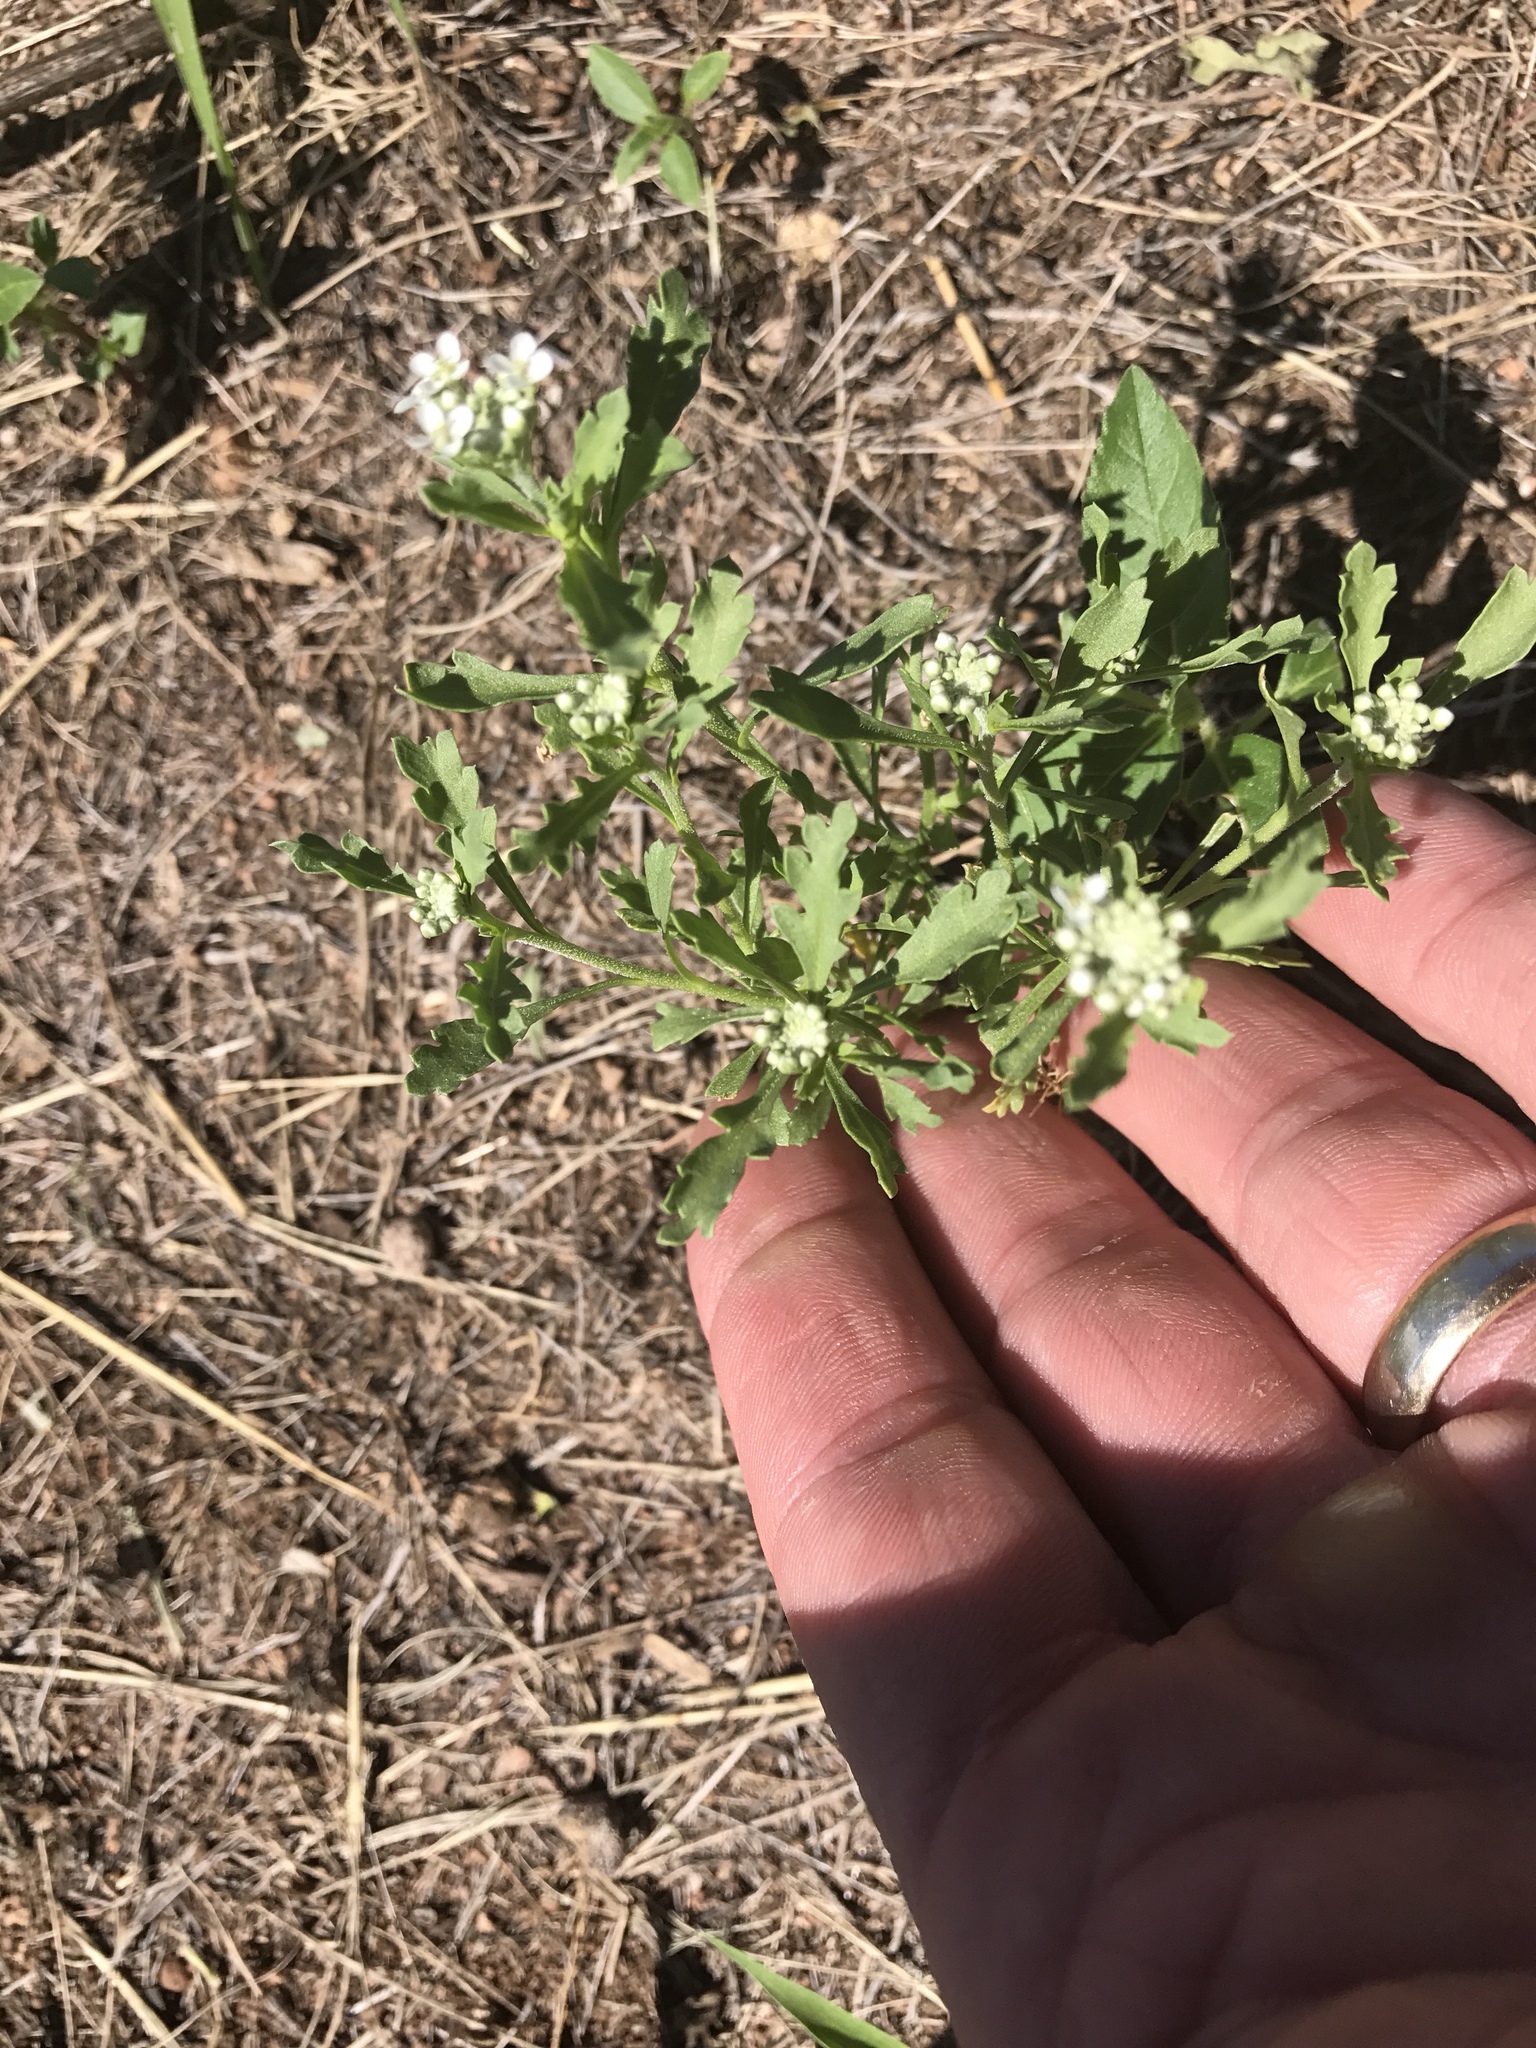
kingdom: Plantae
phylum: Tracheophyta
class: Magnoliopsida
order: Brassicales
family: Brassicaceae
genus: Lepidium
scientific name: Lepidium thurberi
